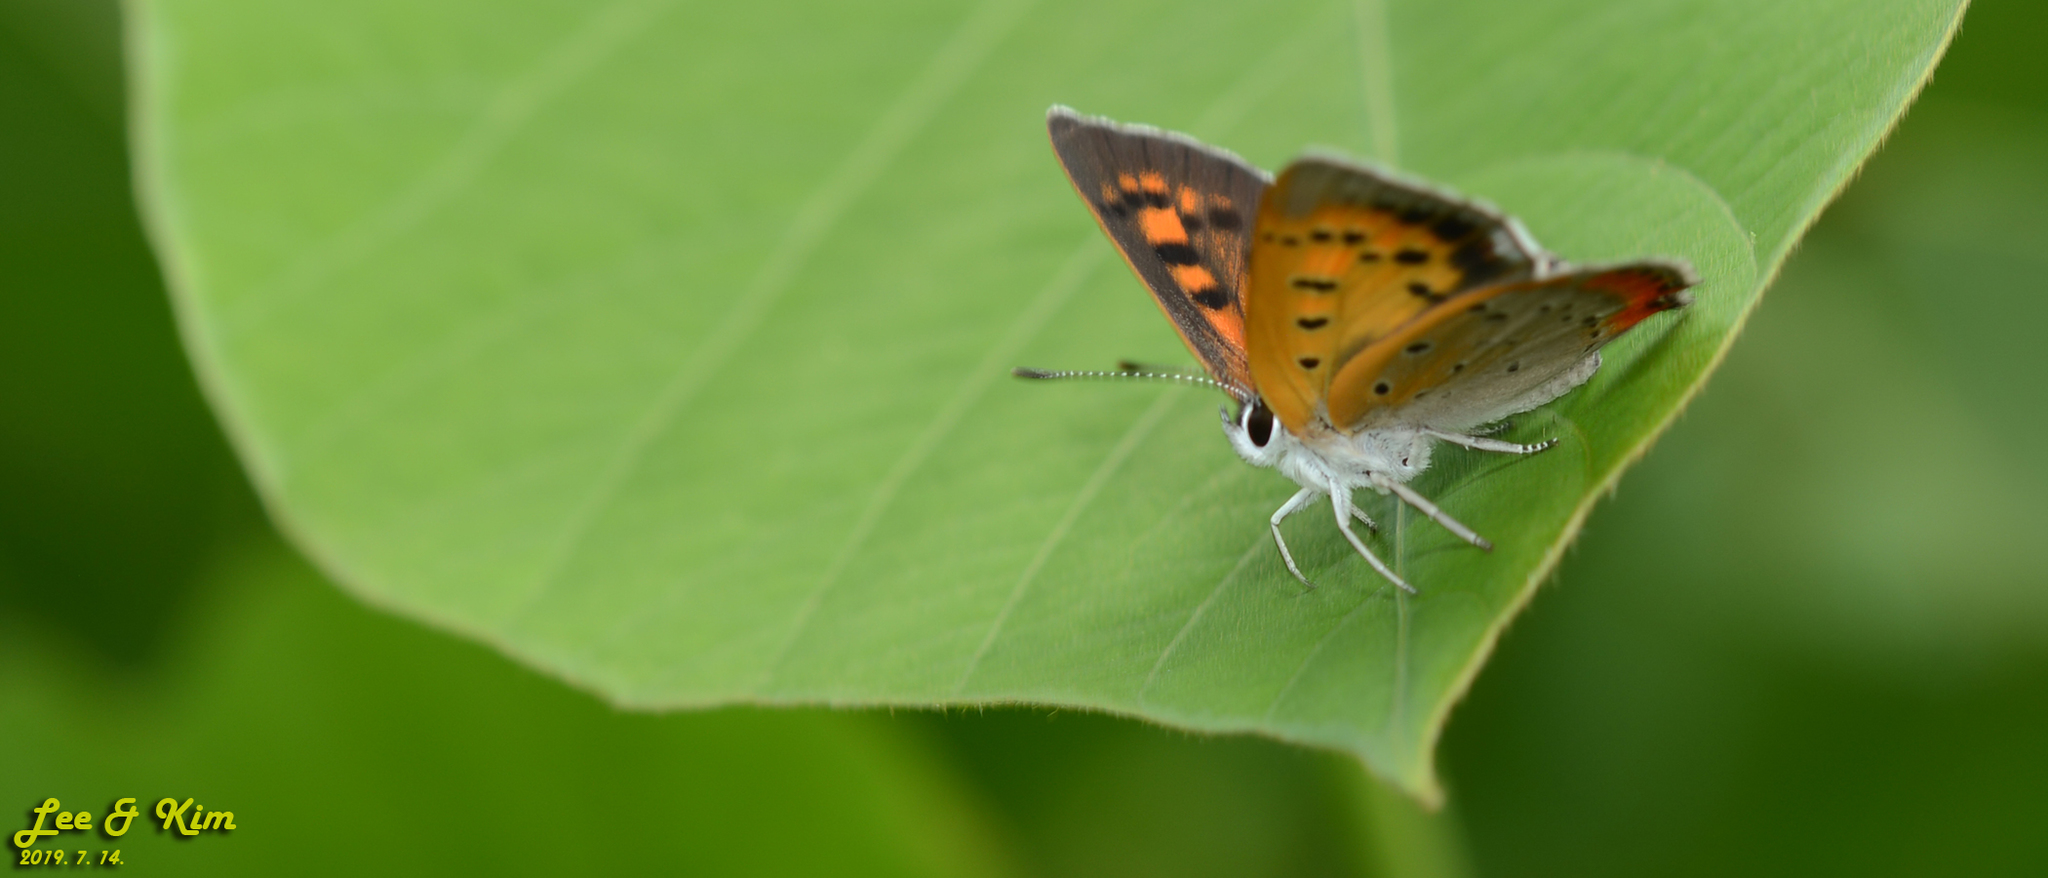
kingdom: Animalia
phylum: Arthropoda
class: Insecta
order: Lepidoptera
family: Lycaenidae
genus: Lycaena
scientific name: Lycaena phlaeas
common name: Small copper
